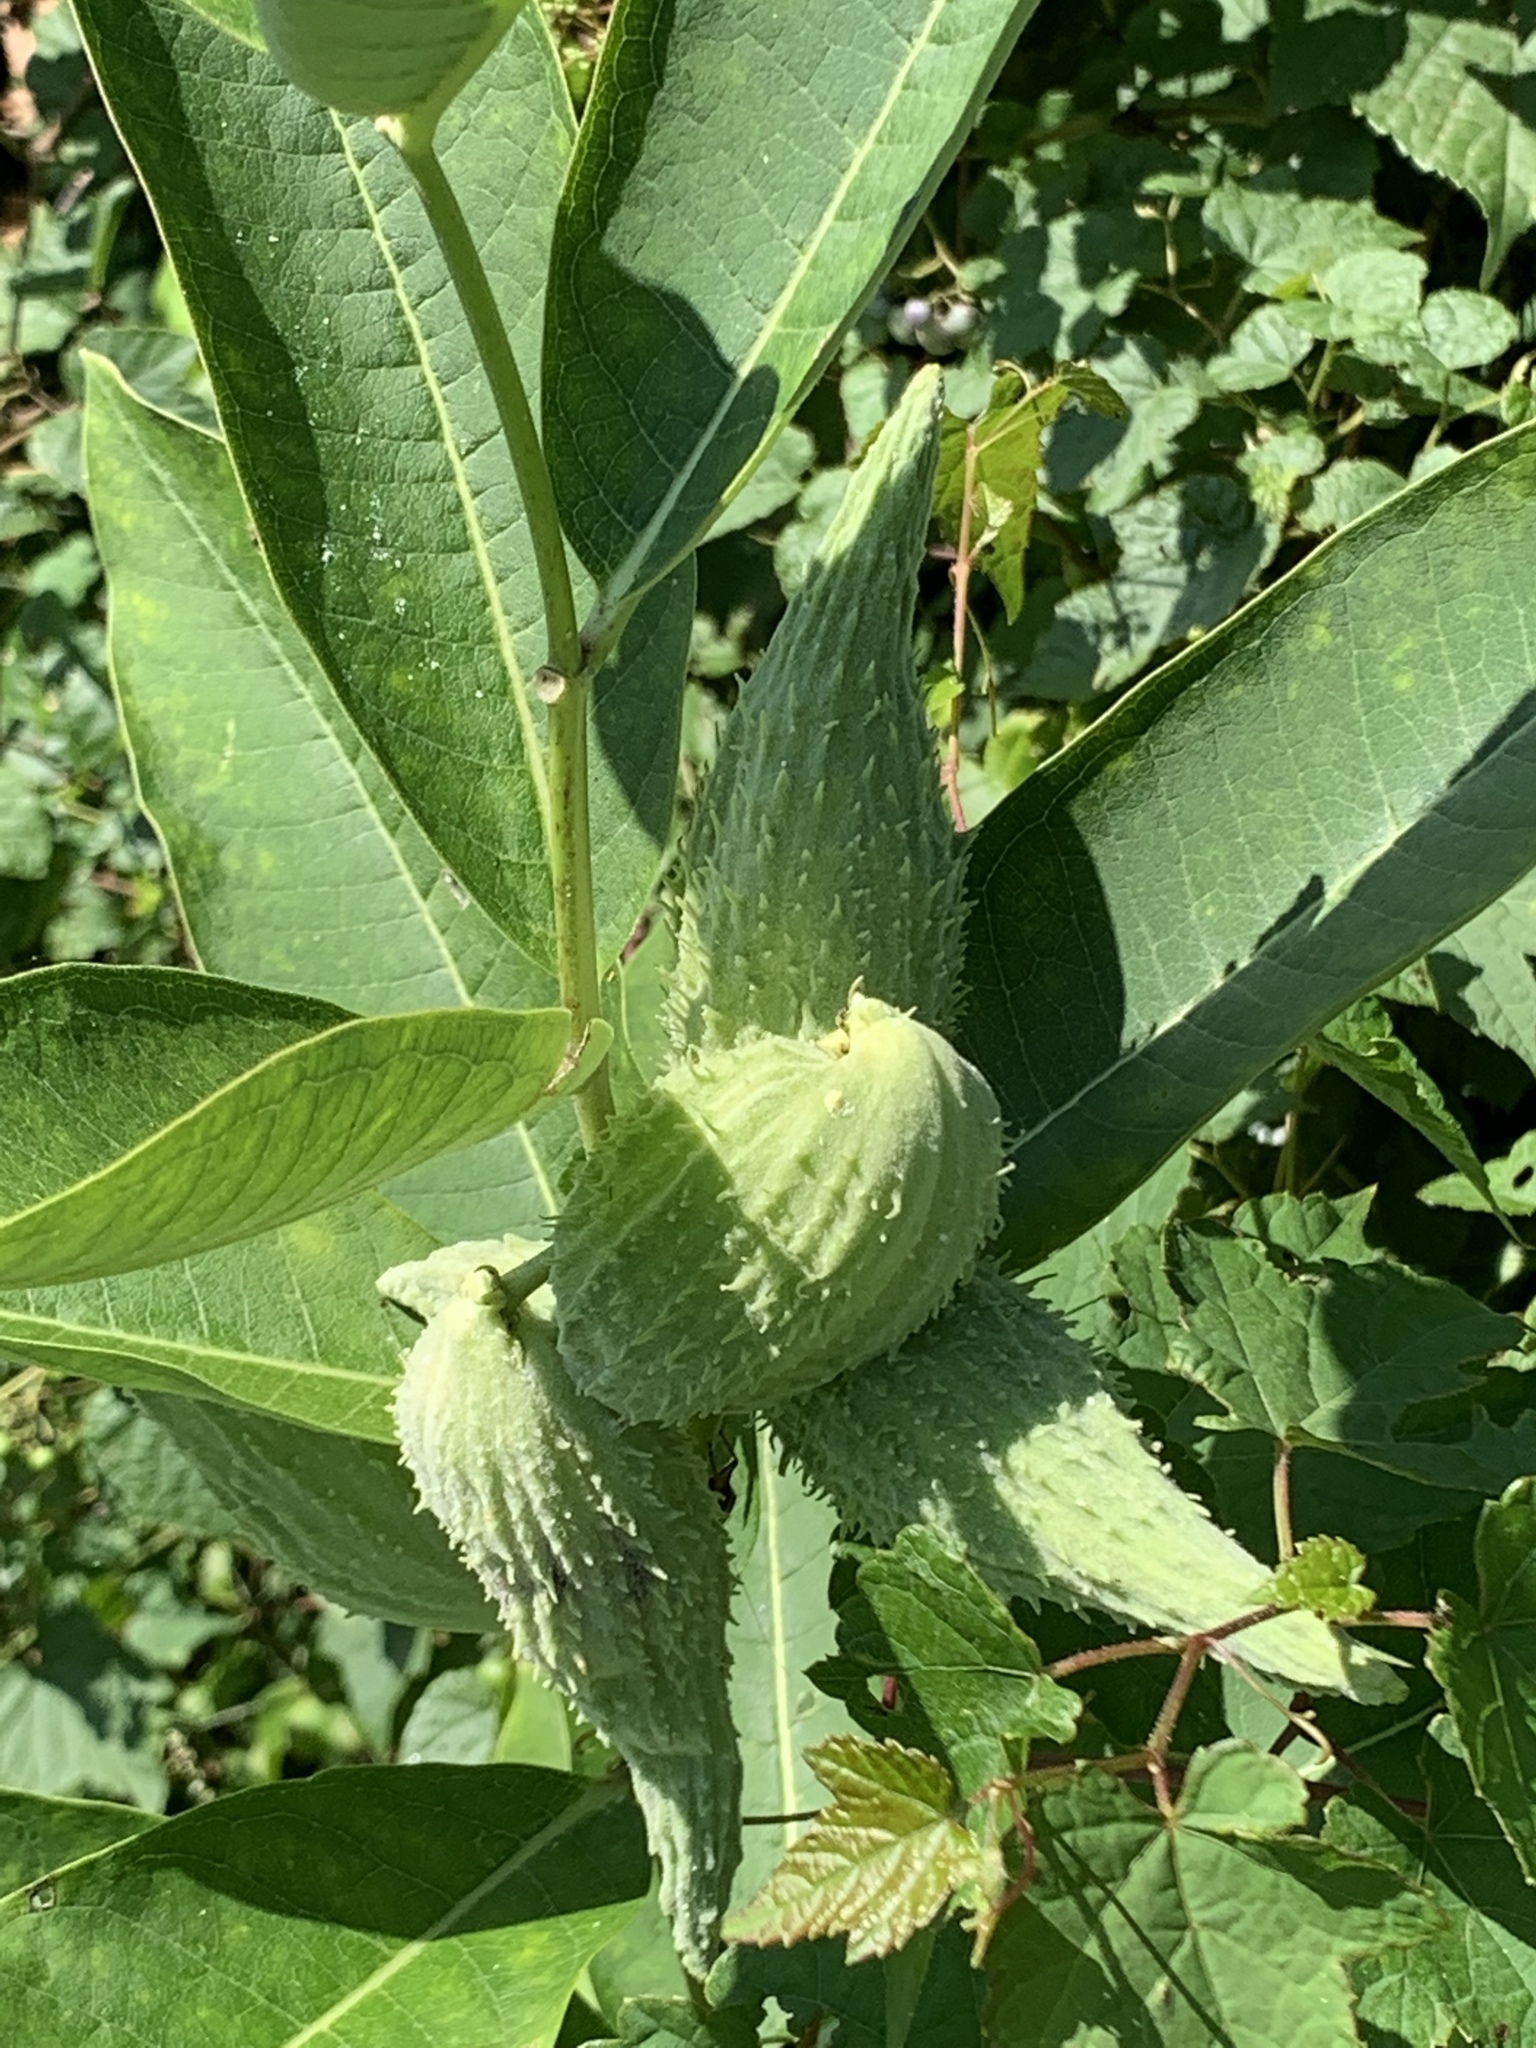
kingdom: Plantae
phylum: Tracheophyta
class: Magnoliopsida
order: Gentianales
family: Apocynaceae
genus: Asclepias
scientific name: Asclepias syriaca
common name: Common milkweed
